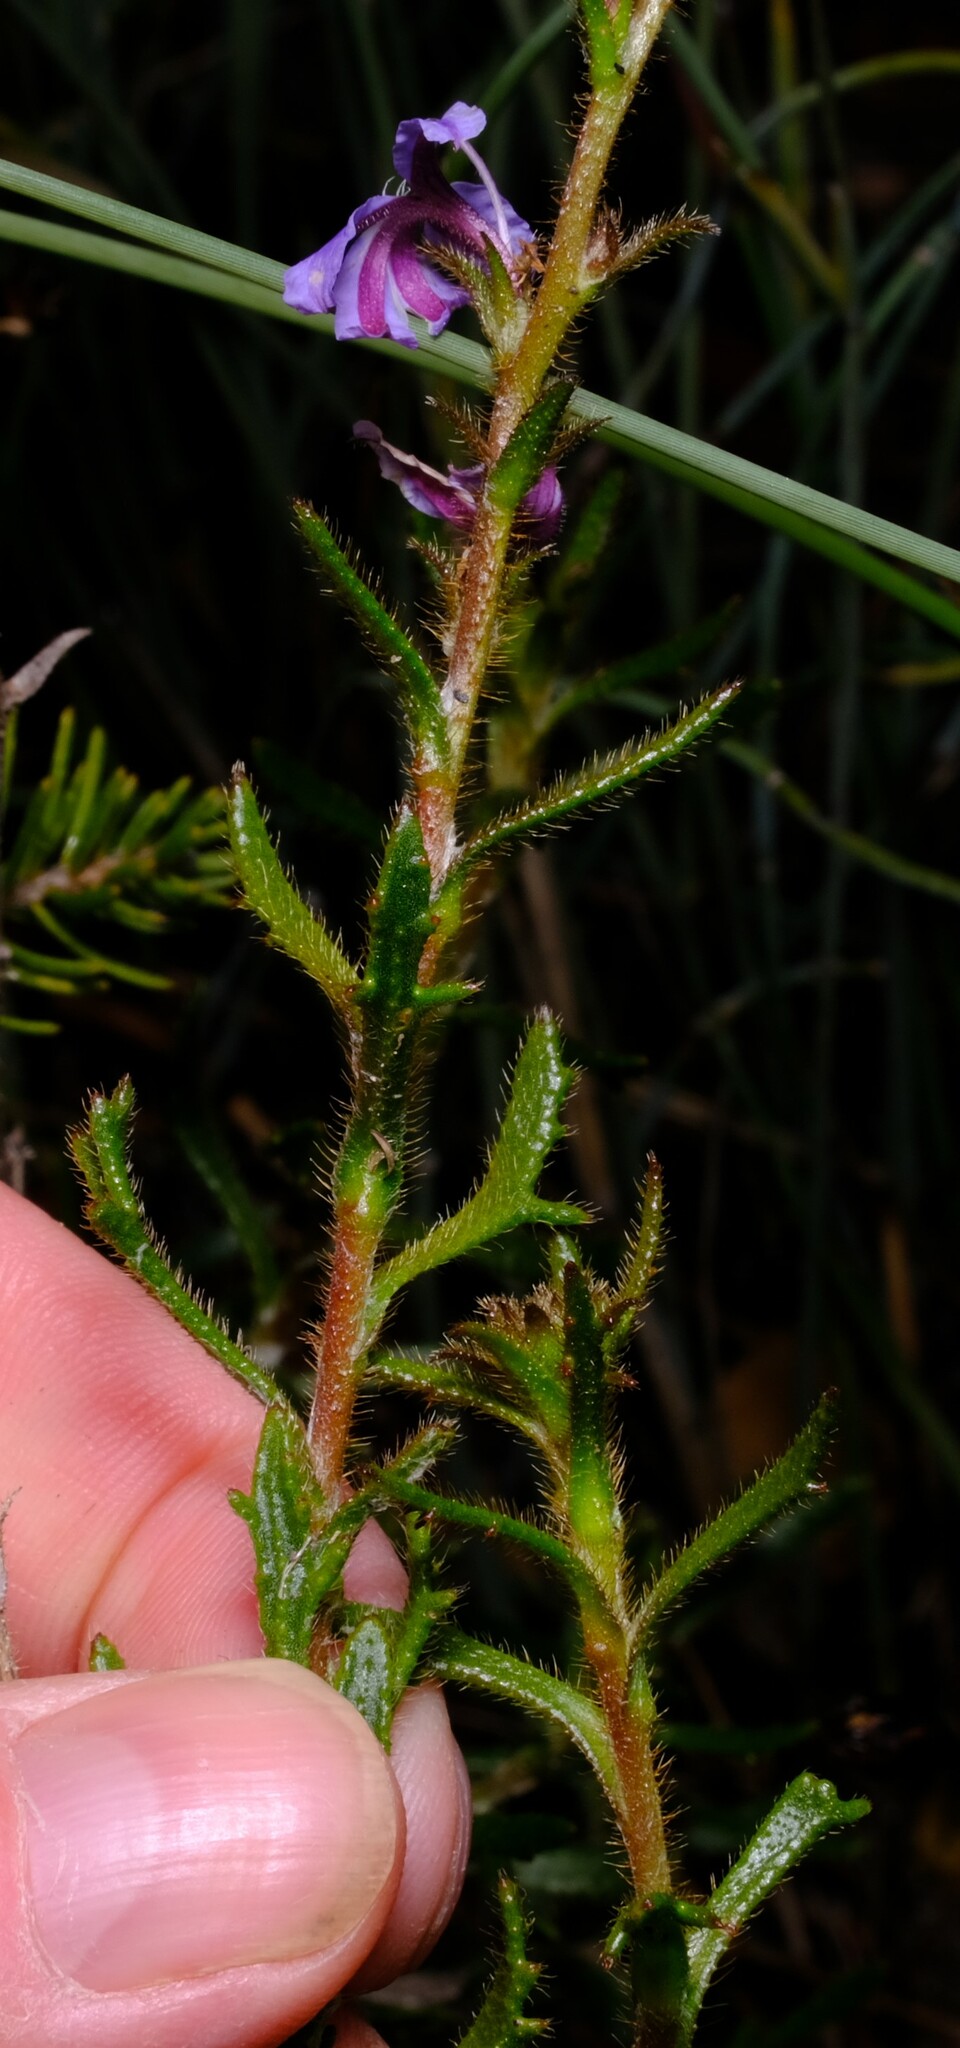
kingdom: Plantae
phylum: Tracheophyta
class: Magnoliopsida
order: Asterales
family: Goodeniaceae
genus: Scaevola
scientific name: Scaevola glandulifera
